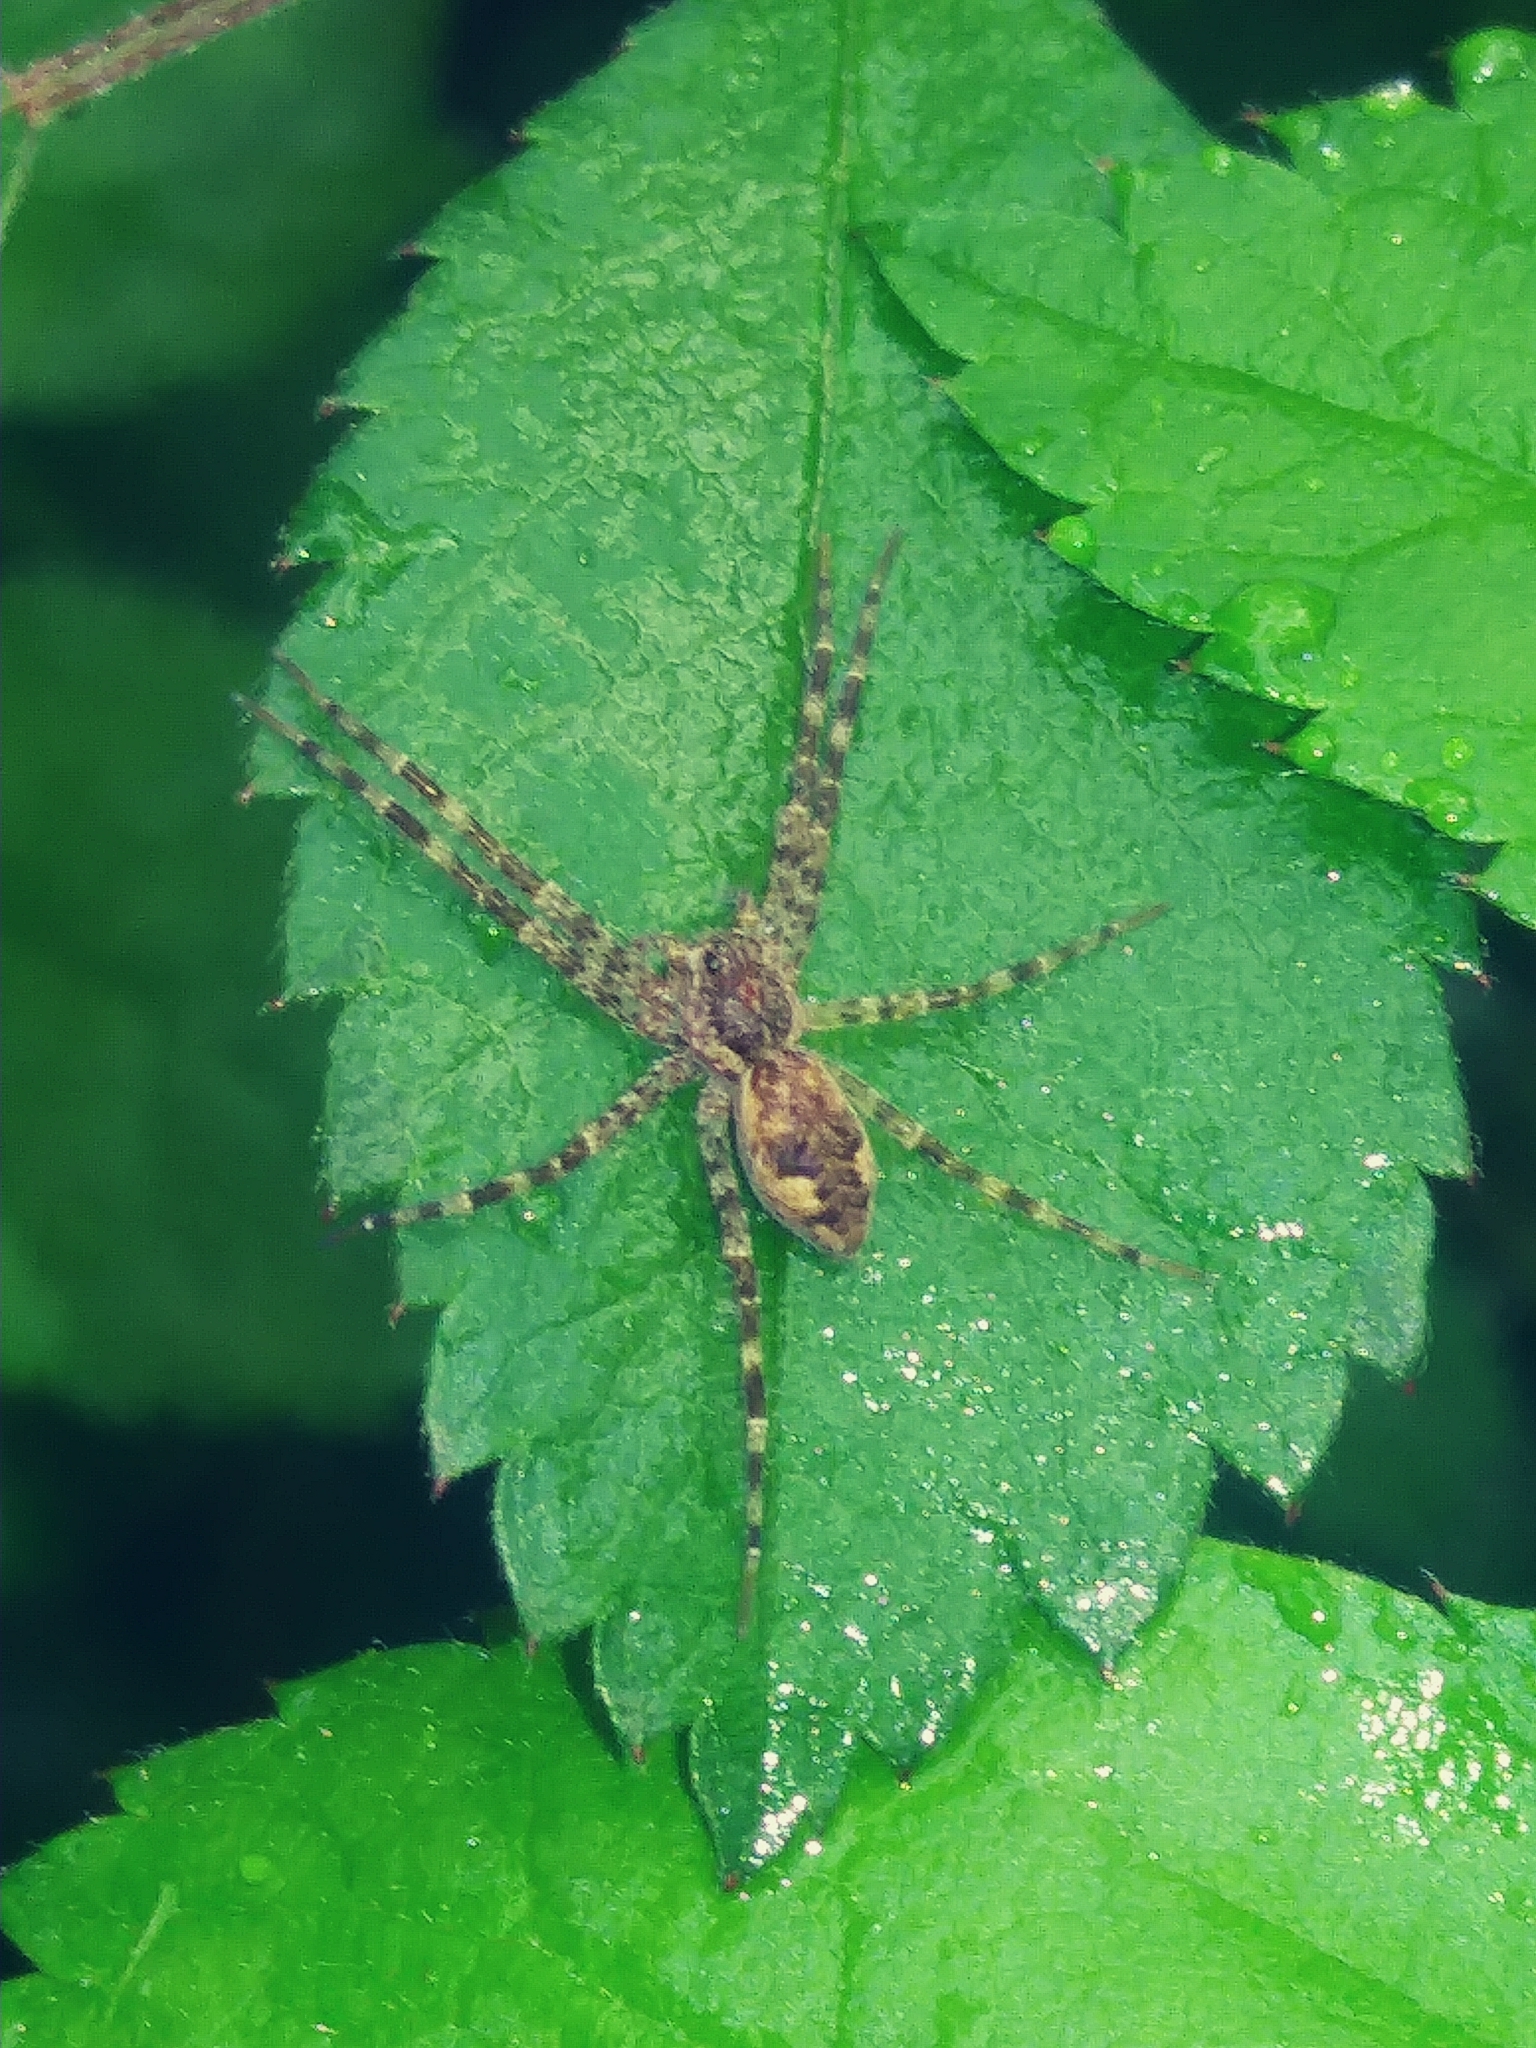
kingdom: Animalia
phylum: Arthropoda
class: Arachnida
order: Araneae
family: Pisauridae
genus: Dolomedes
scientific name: Dolomedes tenebrosus
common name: Dark fishing spider
